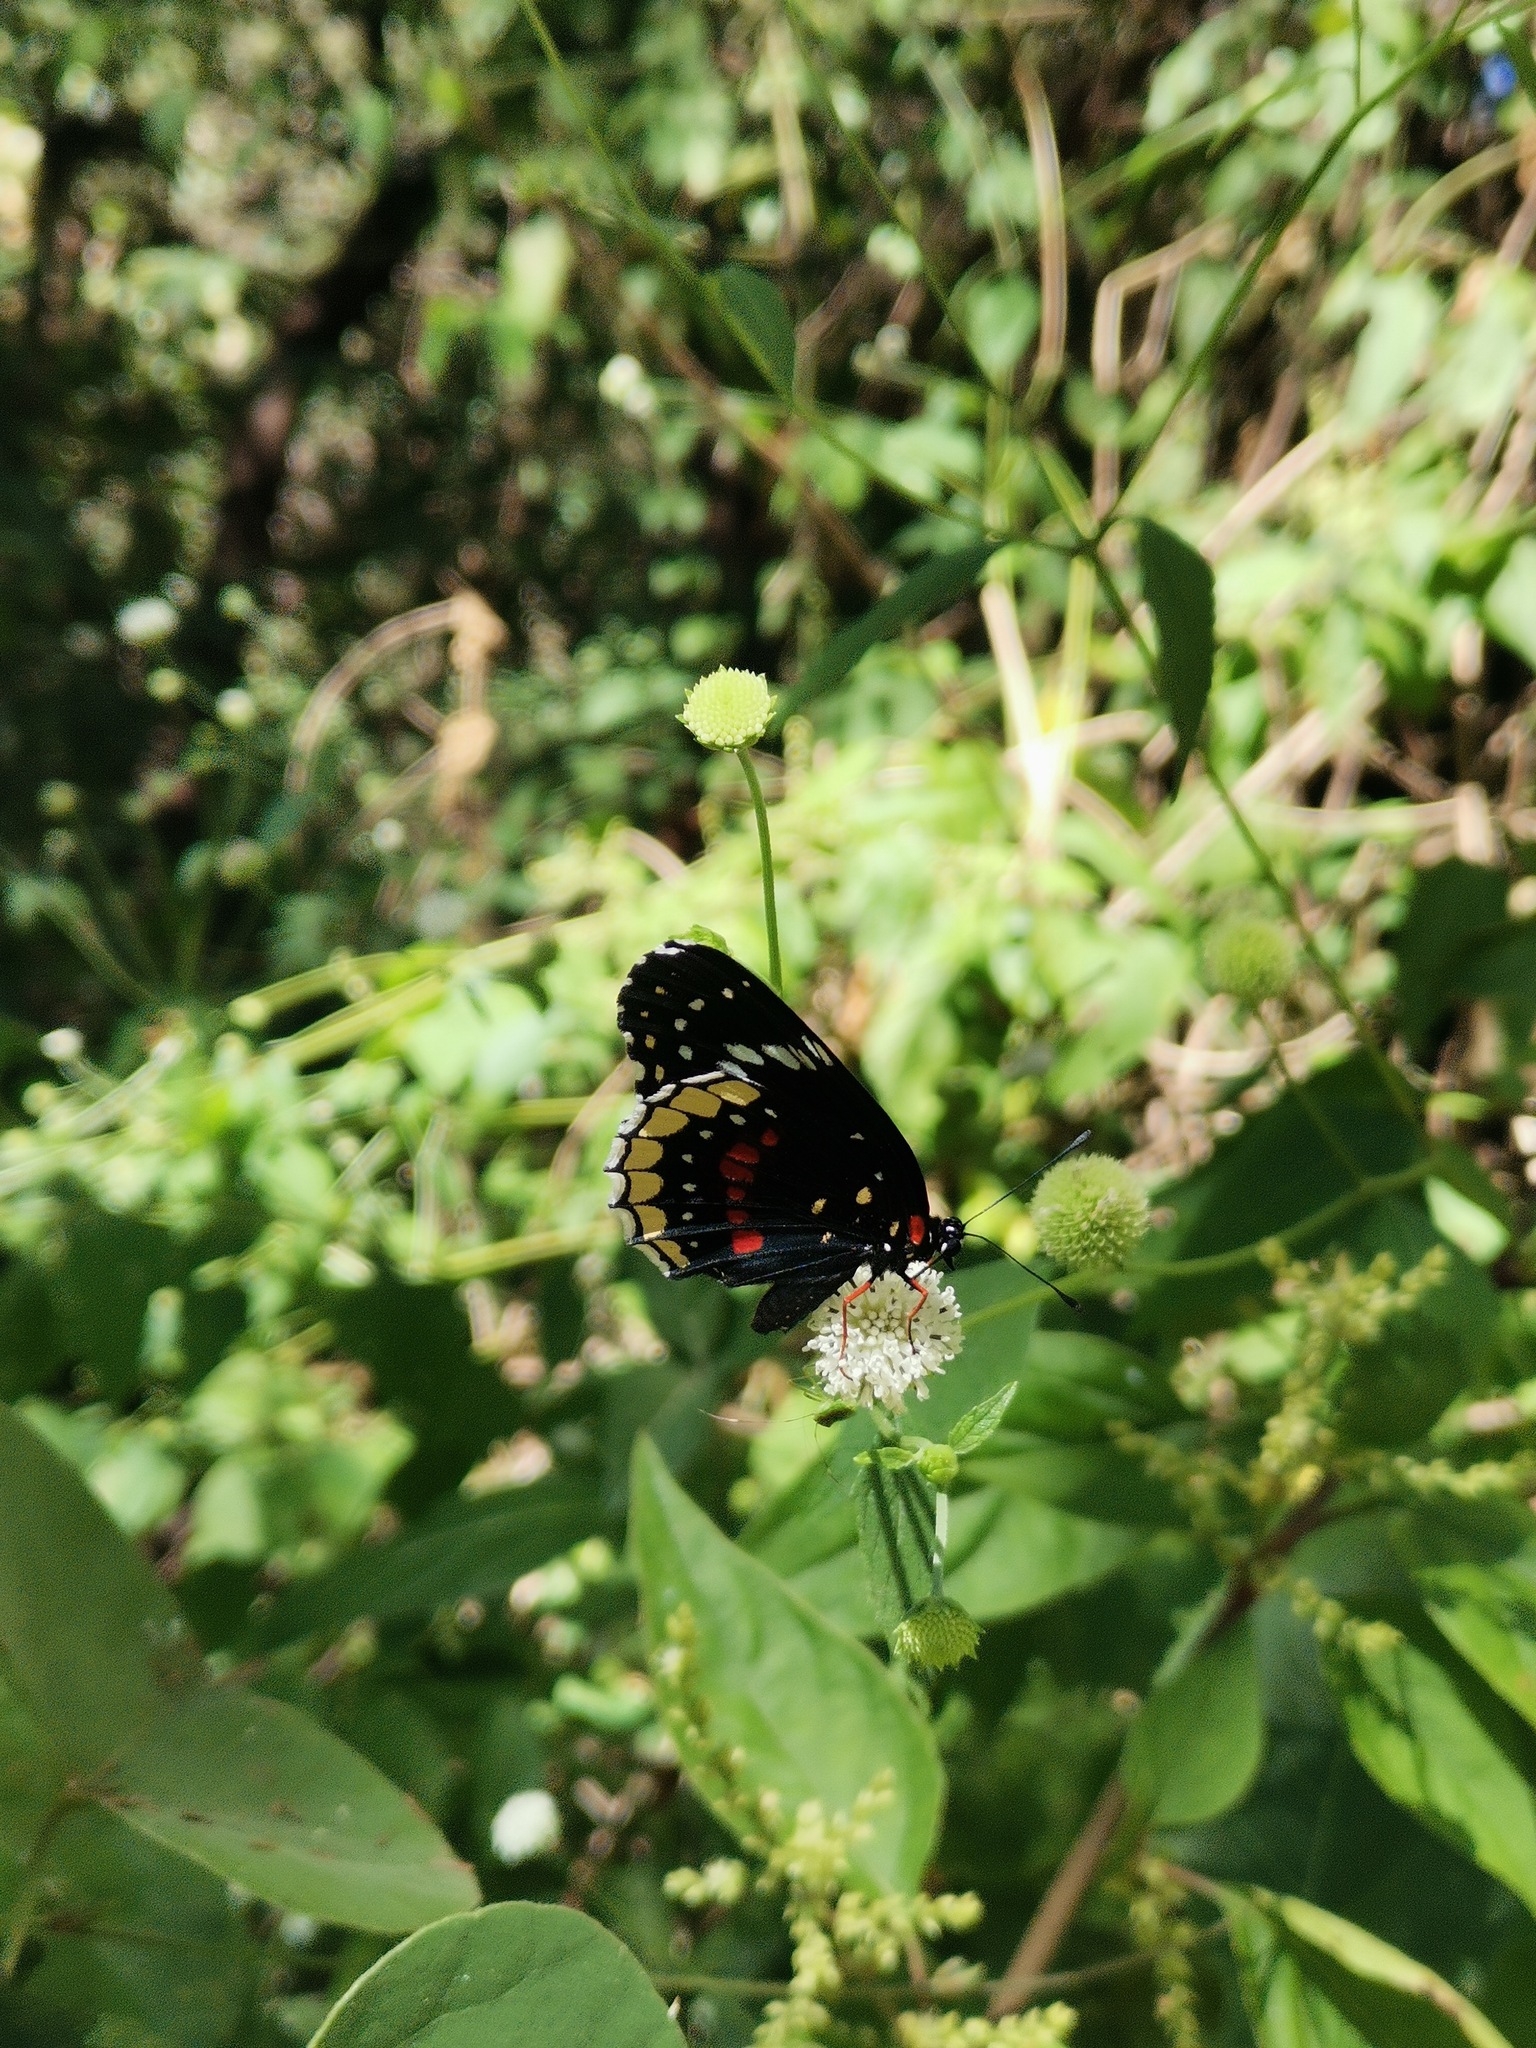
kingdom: Animalia
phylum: Arthropoda
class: Insecta
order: Lepidoptera
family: Nymphalidae
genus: Chlosyne
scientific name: Chlosyne hippodrome
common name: Simple patch
